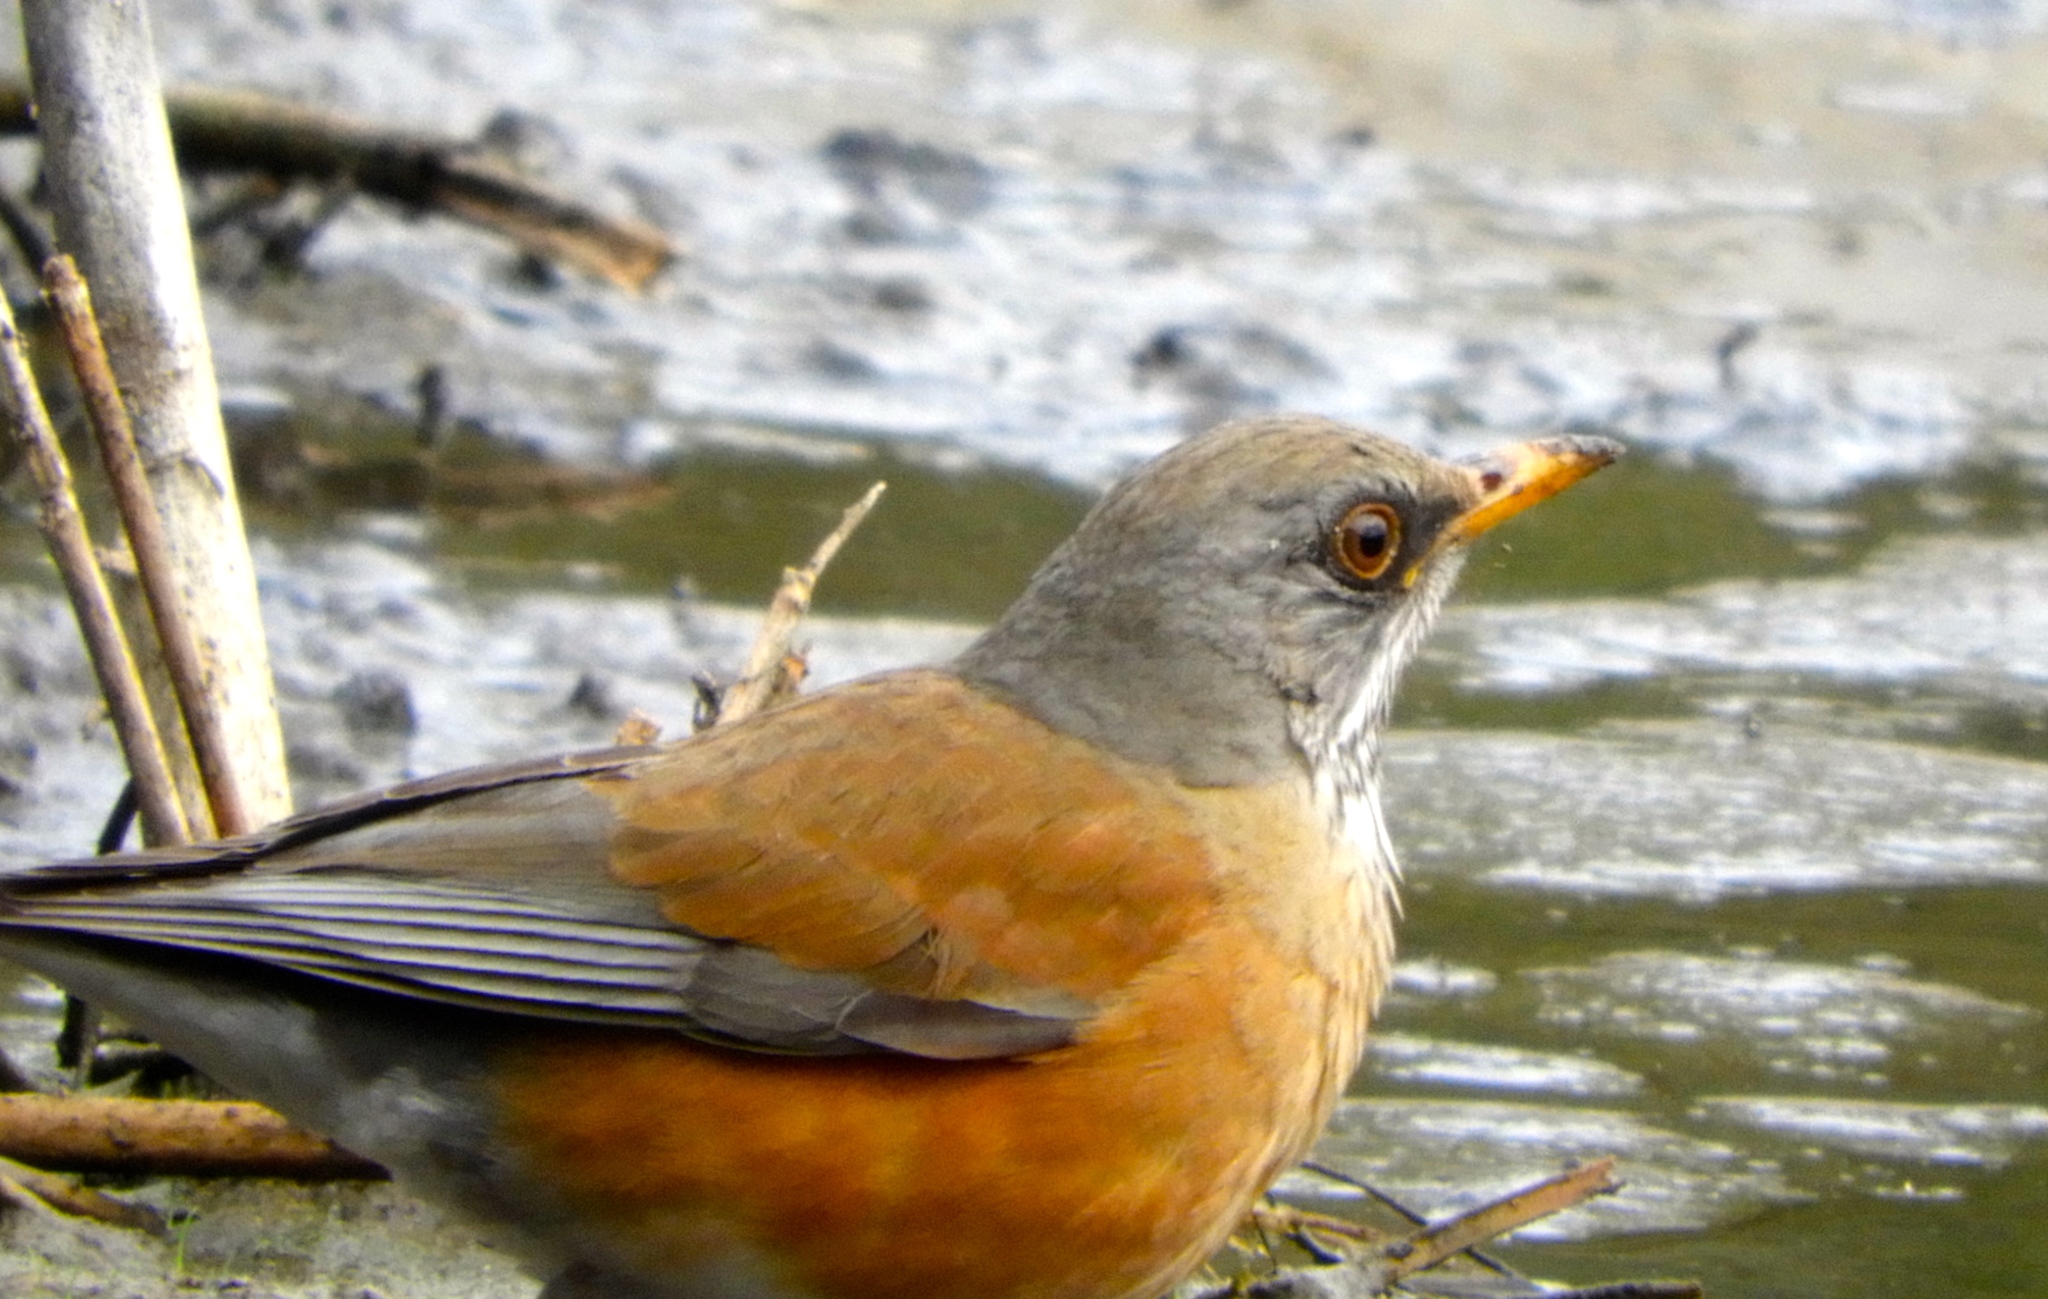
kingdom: Animalia
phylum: Chordata
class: Aves
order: Passeriformes
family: Turdidae
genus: Turdus
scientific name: Turdus rufopalliatus
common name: Rufous-backed robin
